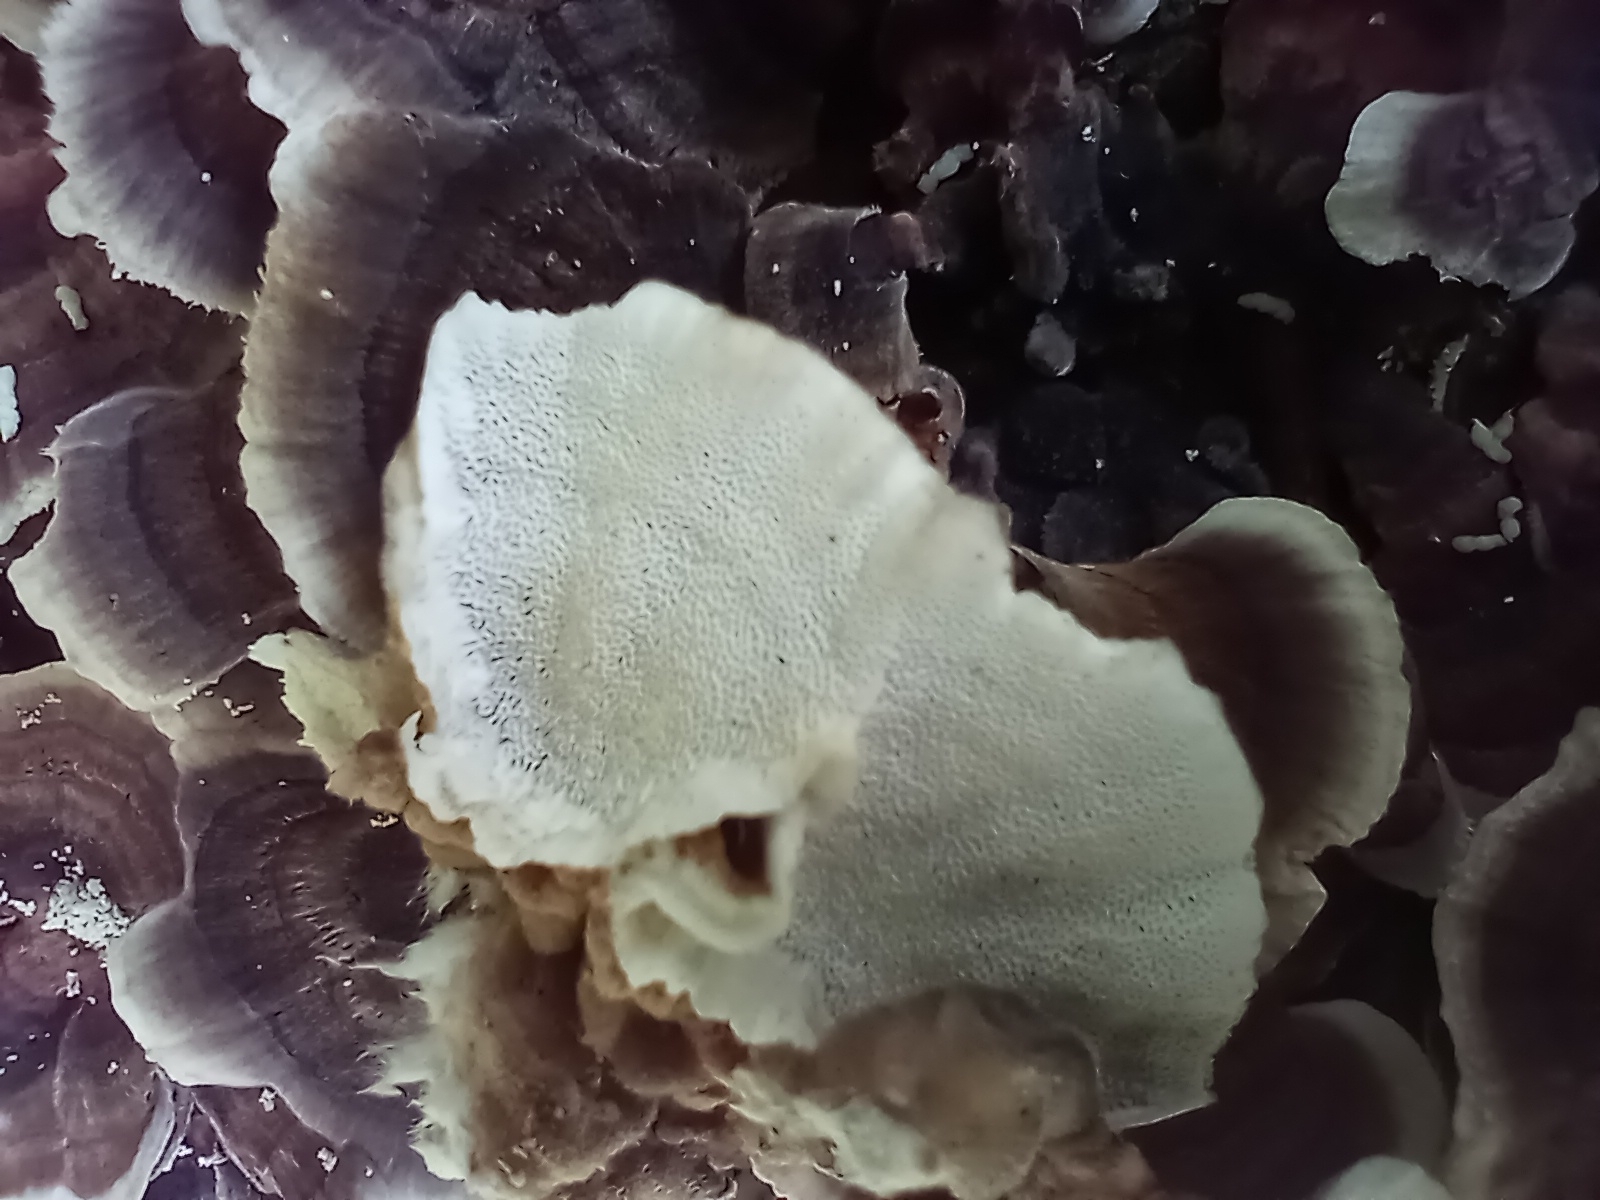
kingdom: Fungi
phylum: Basidiomycota
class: Agaricomycetes
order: Polyporales
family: Polyporaceae
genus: Trametes
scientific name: Trametes versicolor
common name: Turkeytail
